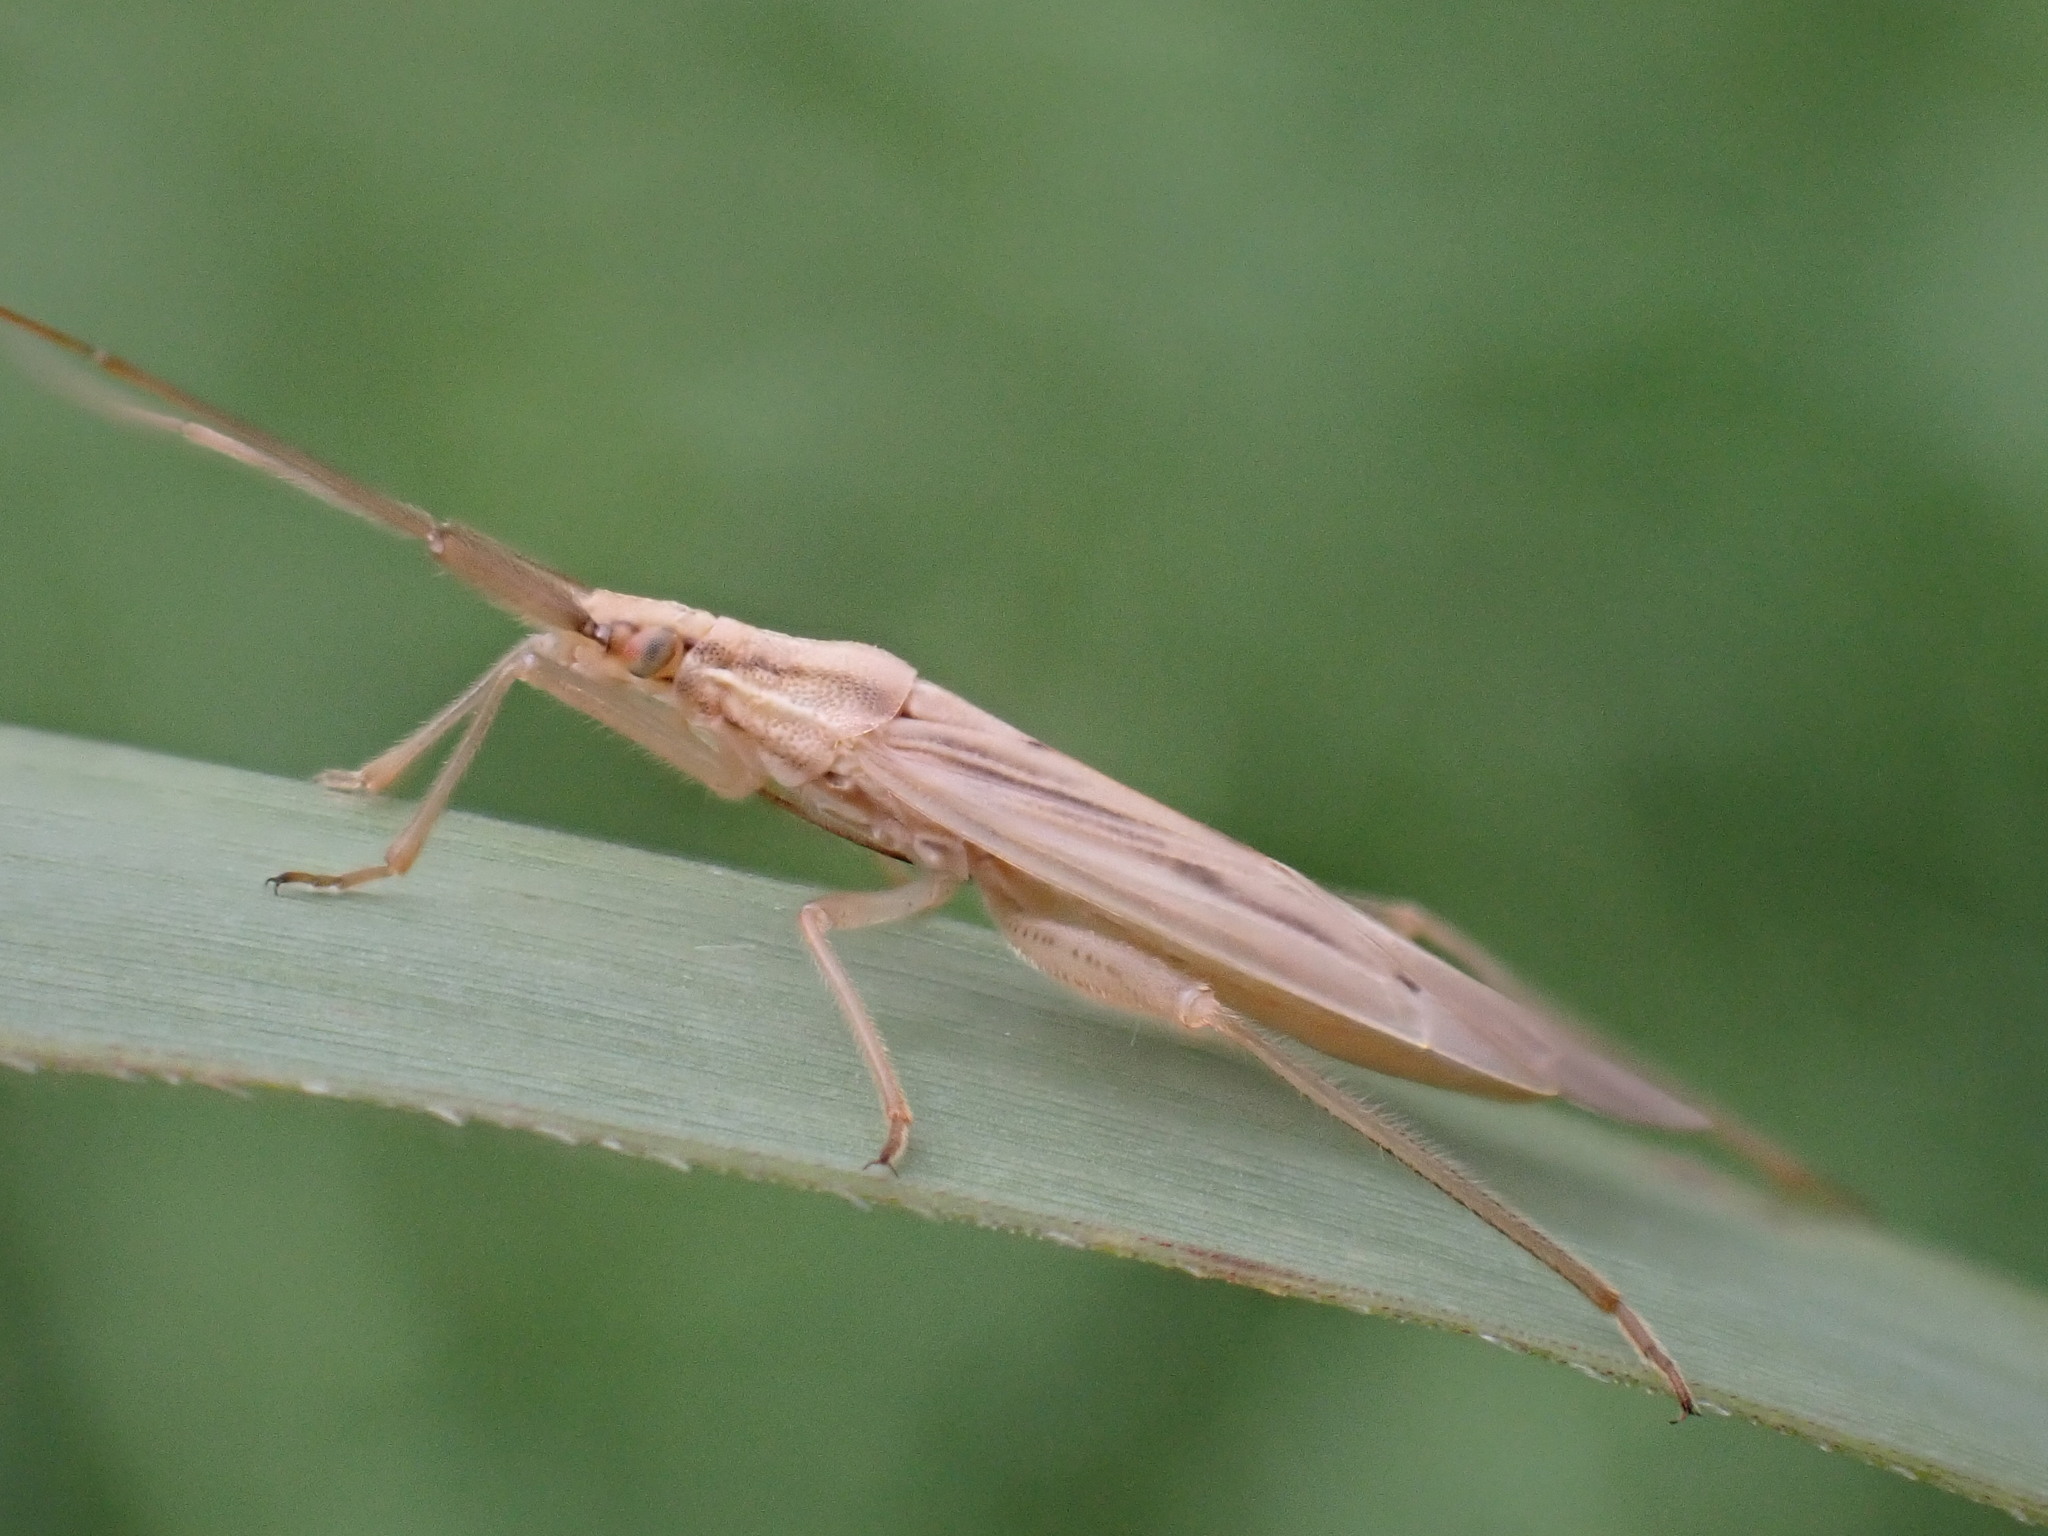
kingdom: Animalia
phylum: Arthropoda
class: Insecta
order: Hemiptera
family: Miridae
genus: Stenodema
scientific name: Stenodema laevigata
